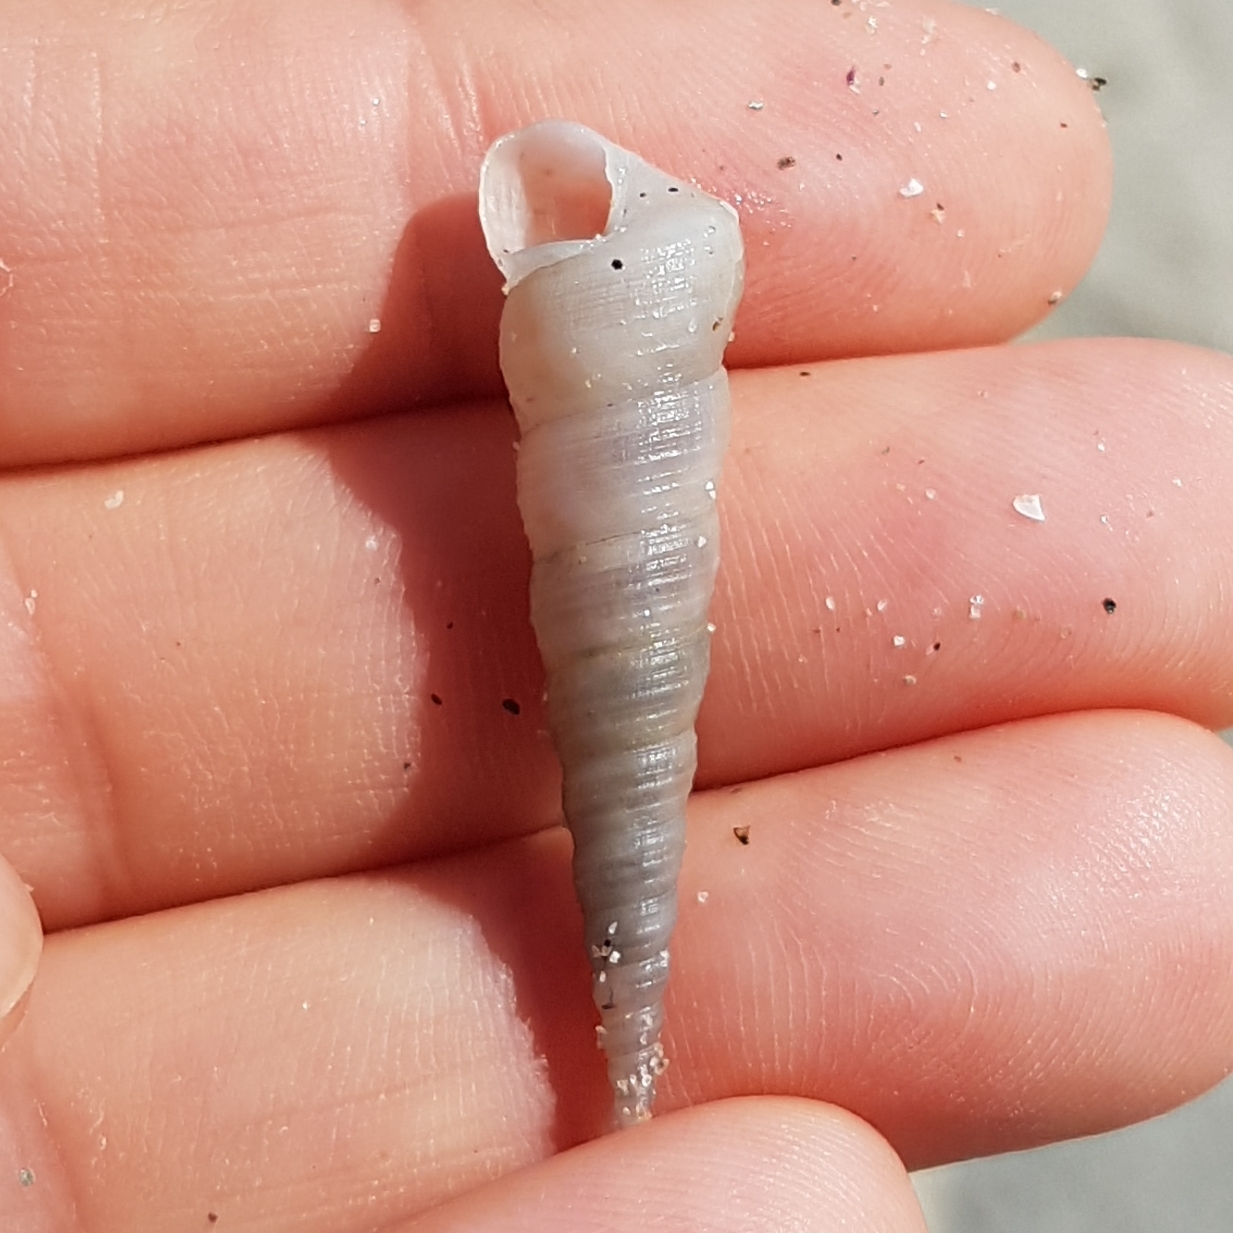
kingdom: Animalia
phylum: Mollusca
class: Gastropoda
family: Turritellidae
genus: Turritellinella
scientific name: Turritellinella tricarinata
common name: Auger shell
